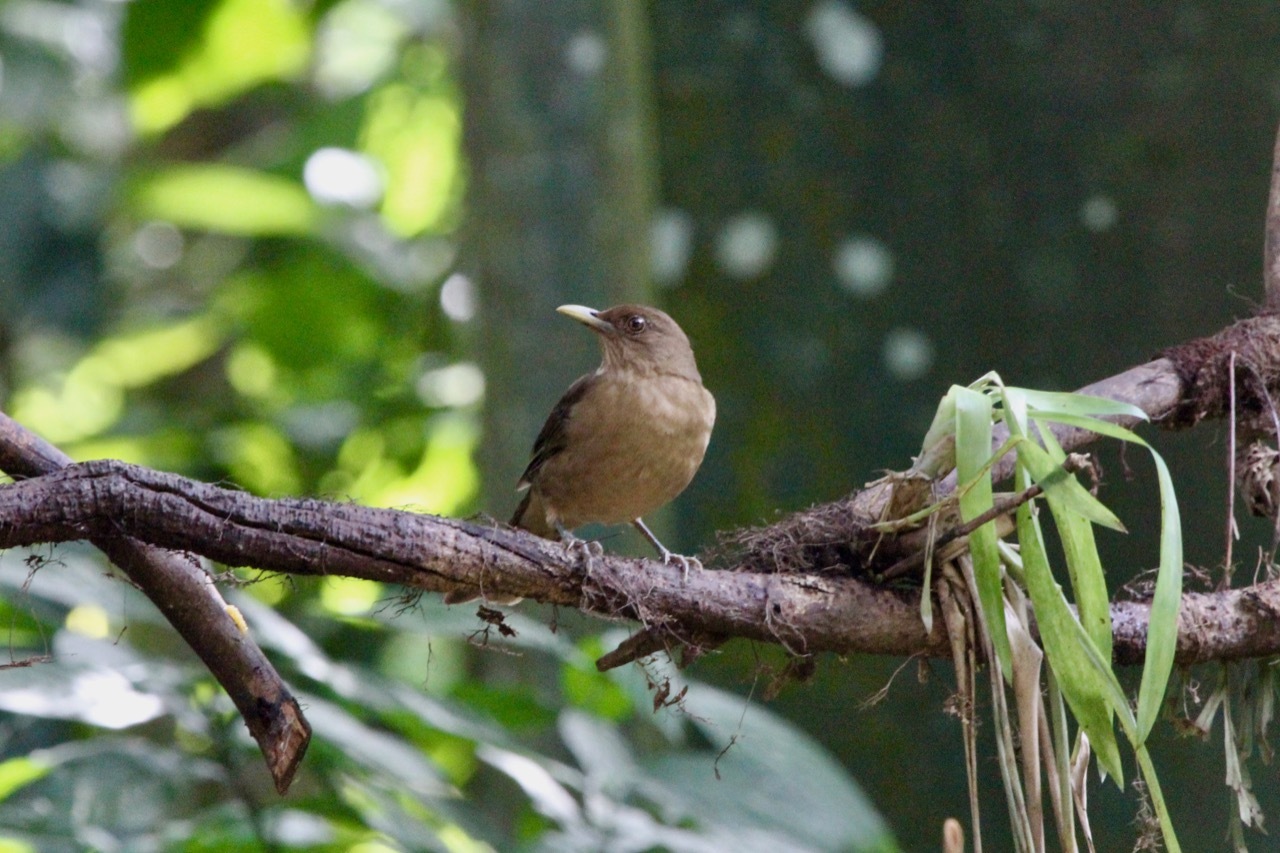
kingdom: Animalia
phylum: Chordata
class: Aves
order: Passeriformes
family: Turdidae
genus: Turdus
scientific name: Turdus grayi
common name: Clay-colored thrush
